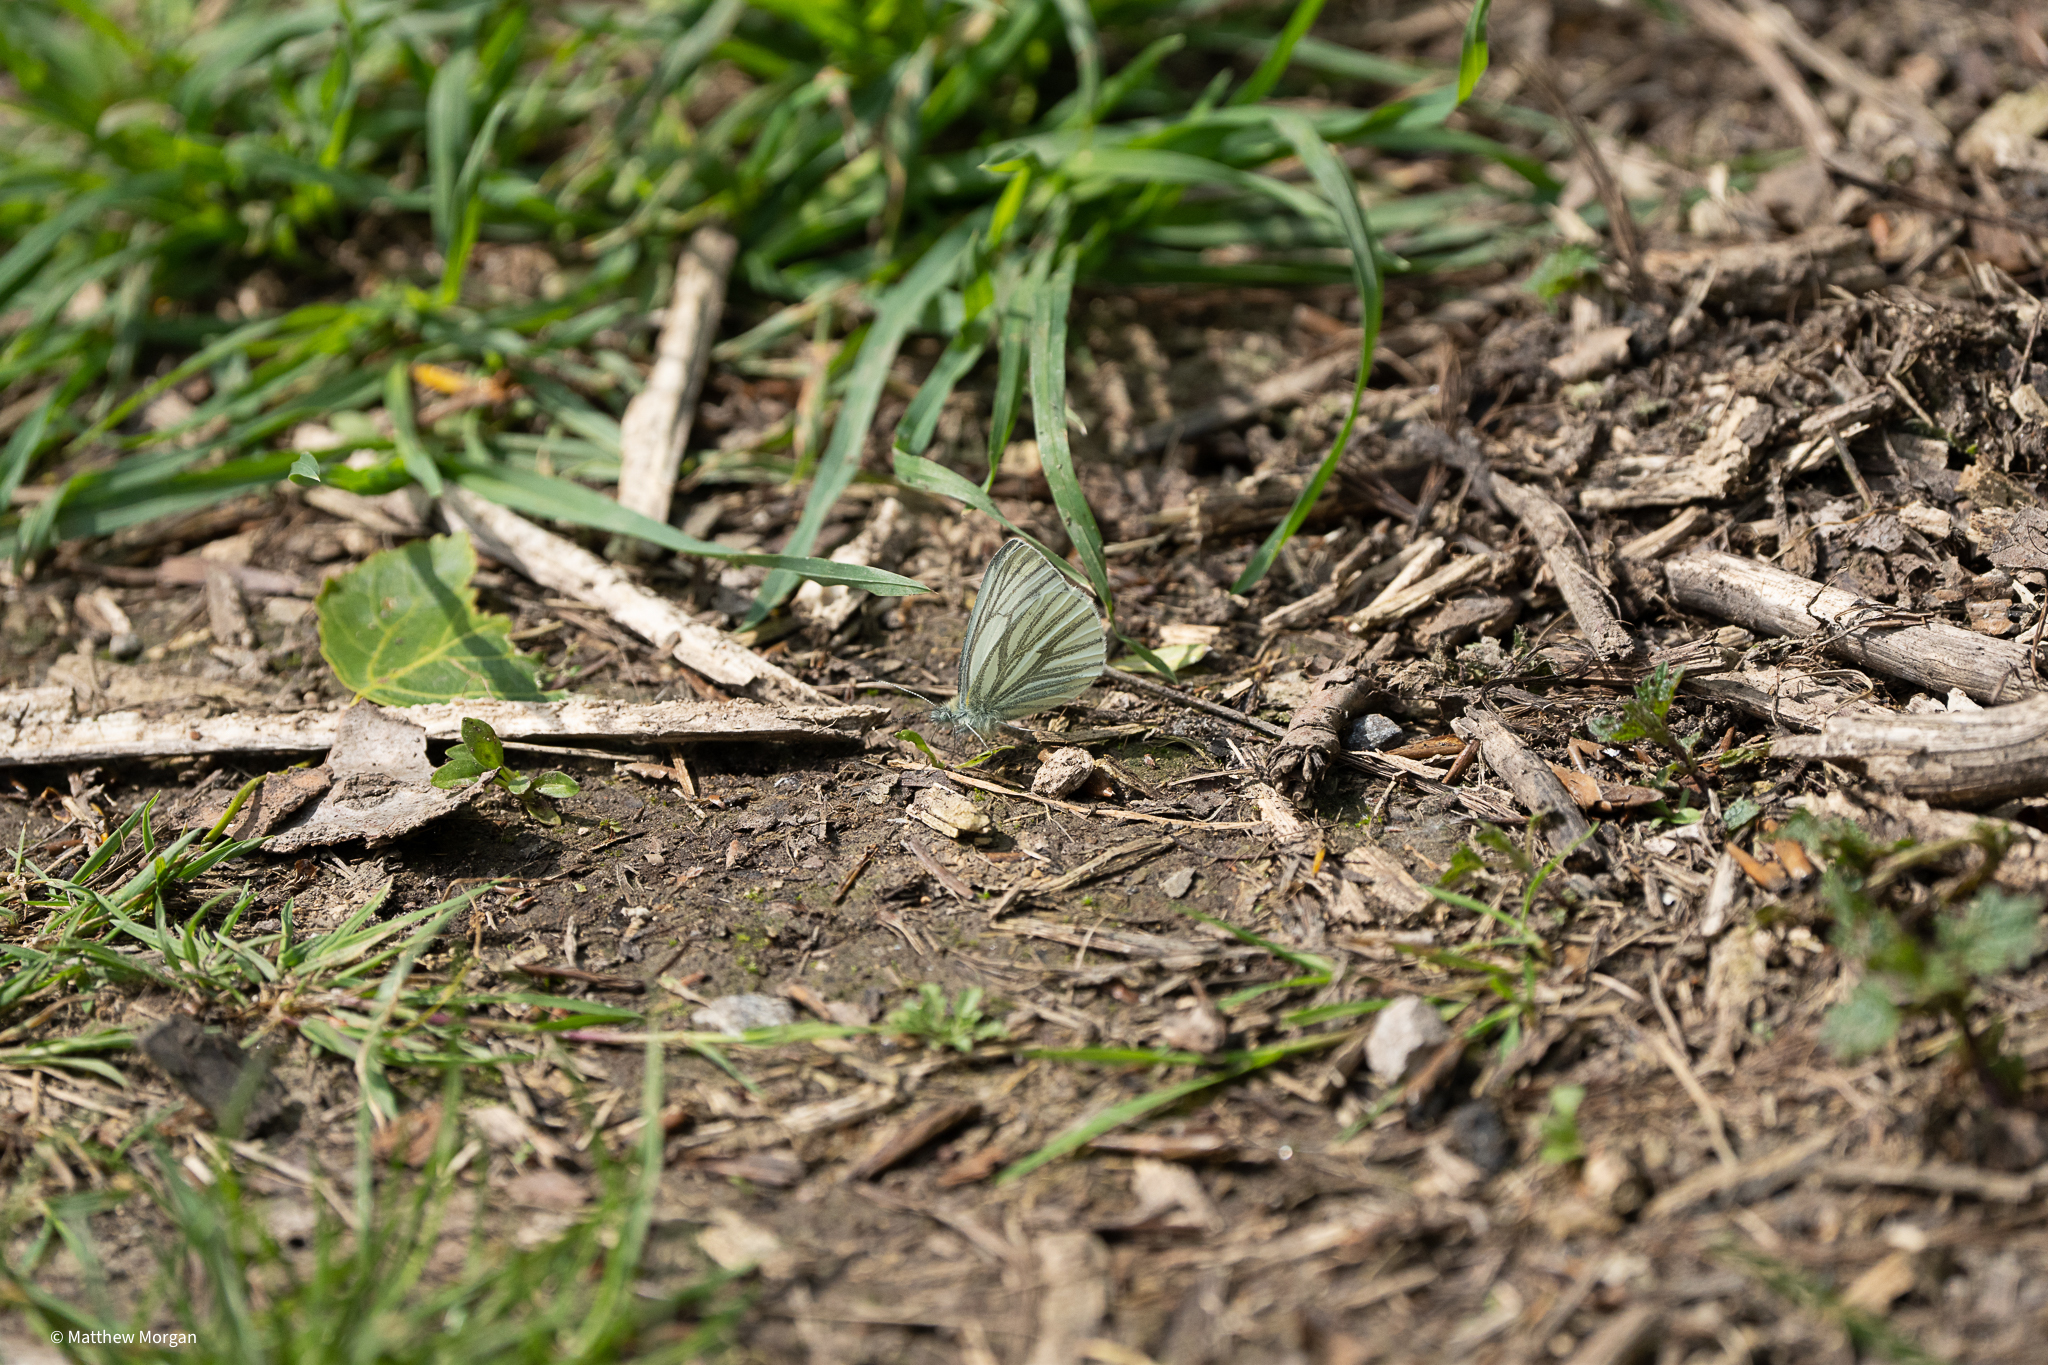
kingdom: Animalia
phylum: Arthropoda
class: Insecta
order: Lepidoptera
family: Pieridae
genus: Pieris
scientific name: Pieris napi
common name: Green-veined white
